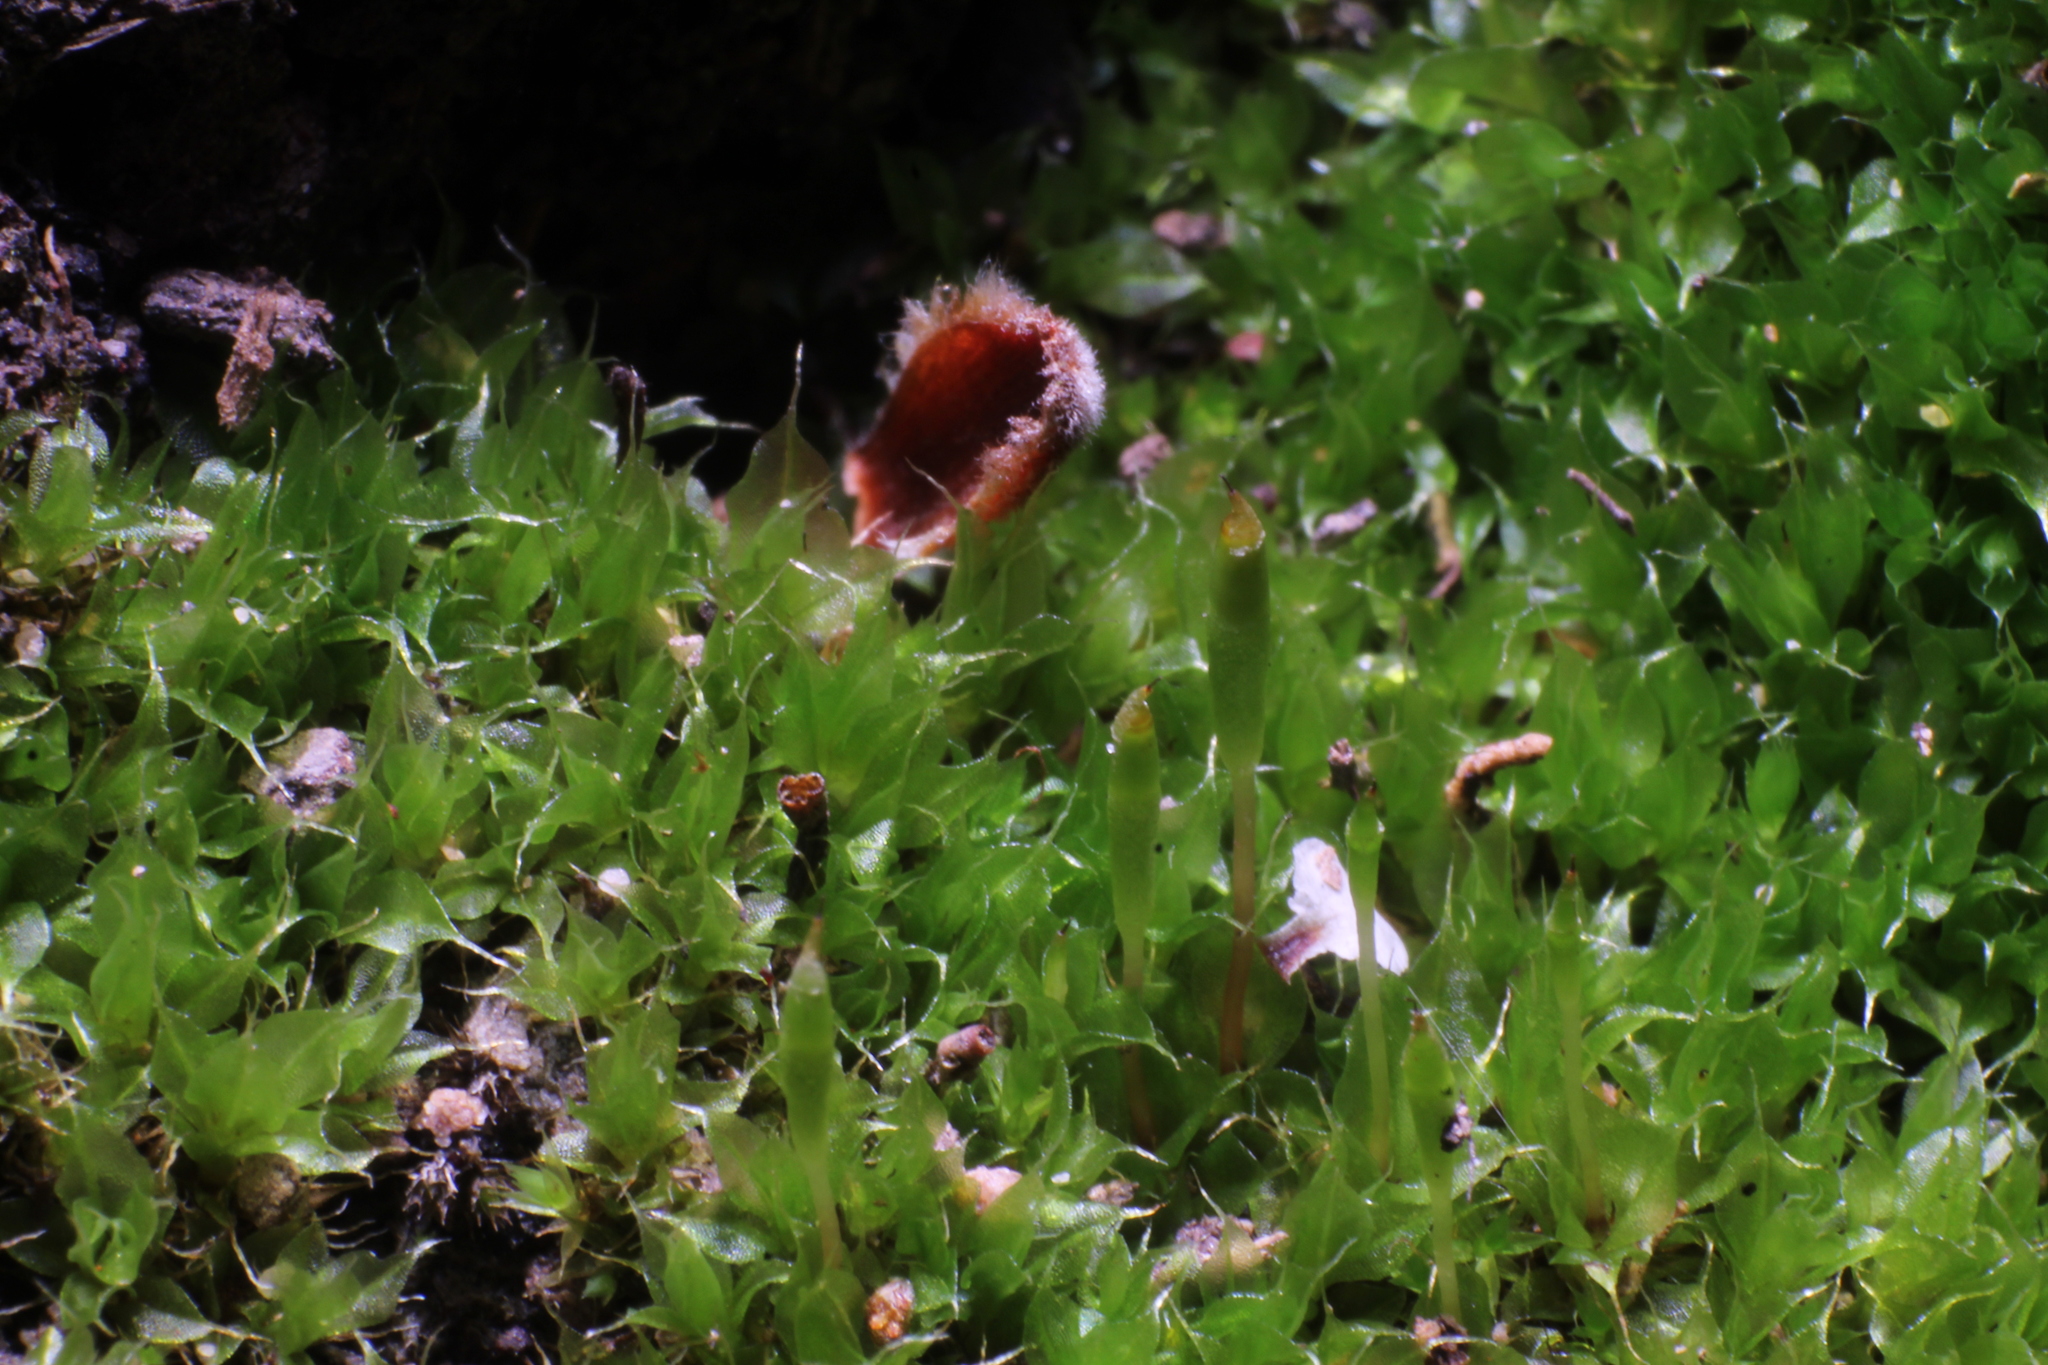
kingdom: Plantae
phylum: Bryophyta
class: Bryopsida
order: Splachnales
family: Splachnaceae
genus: Tayloria
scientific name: Tayloria octoblephara
